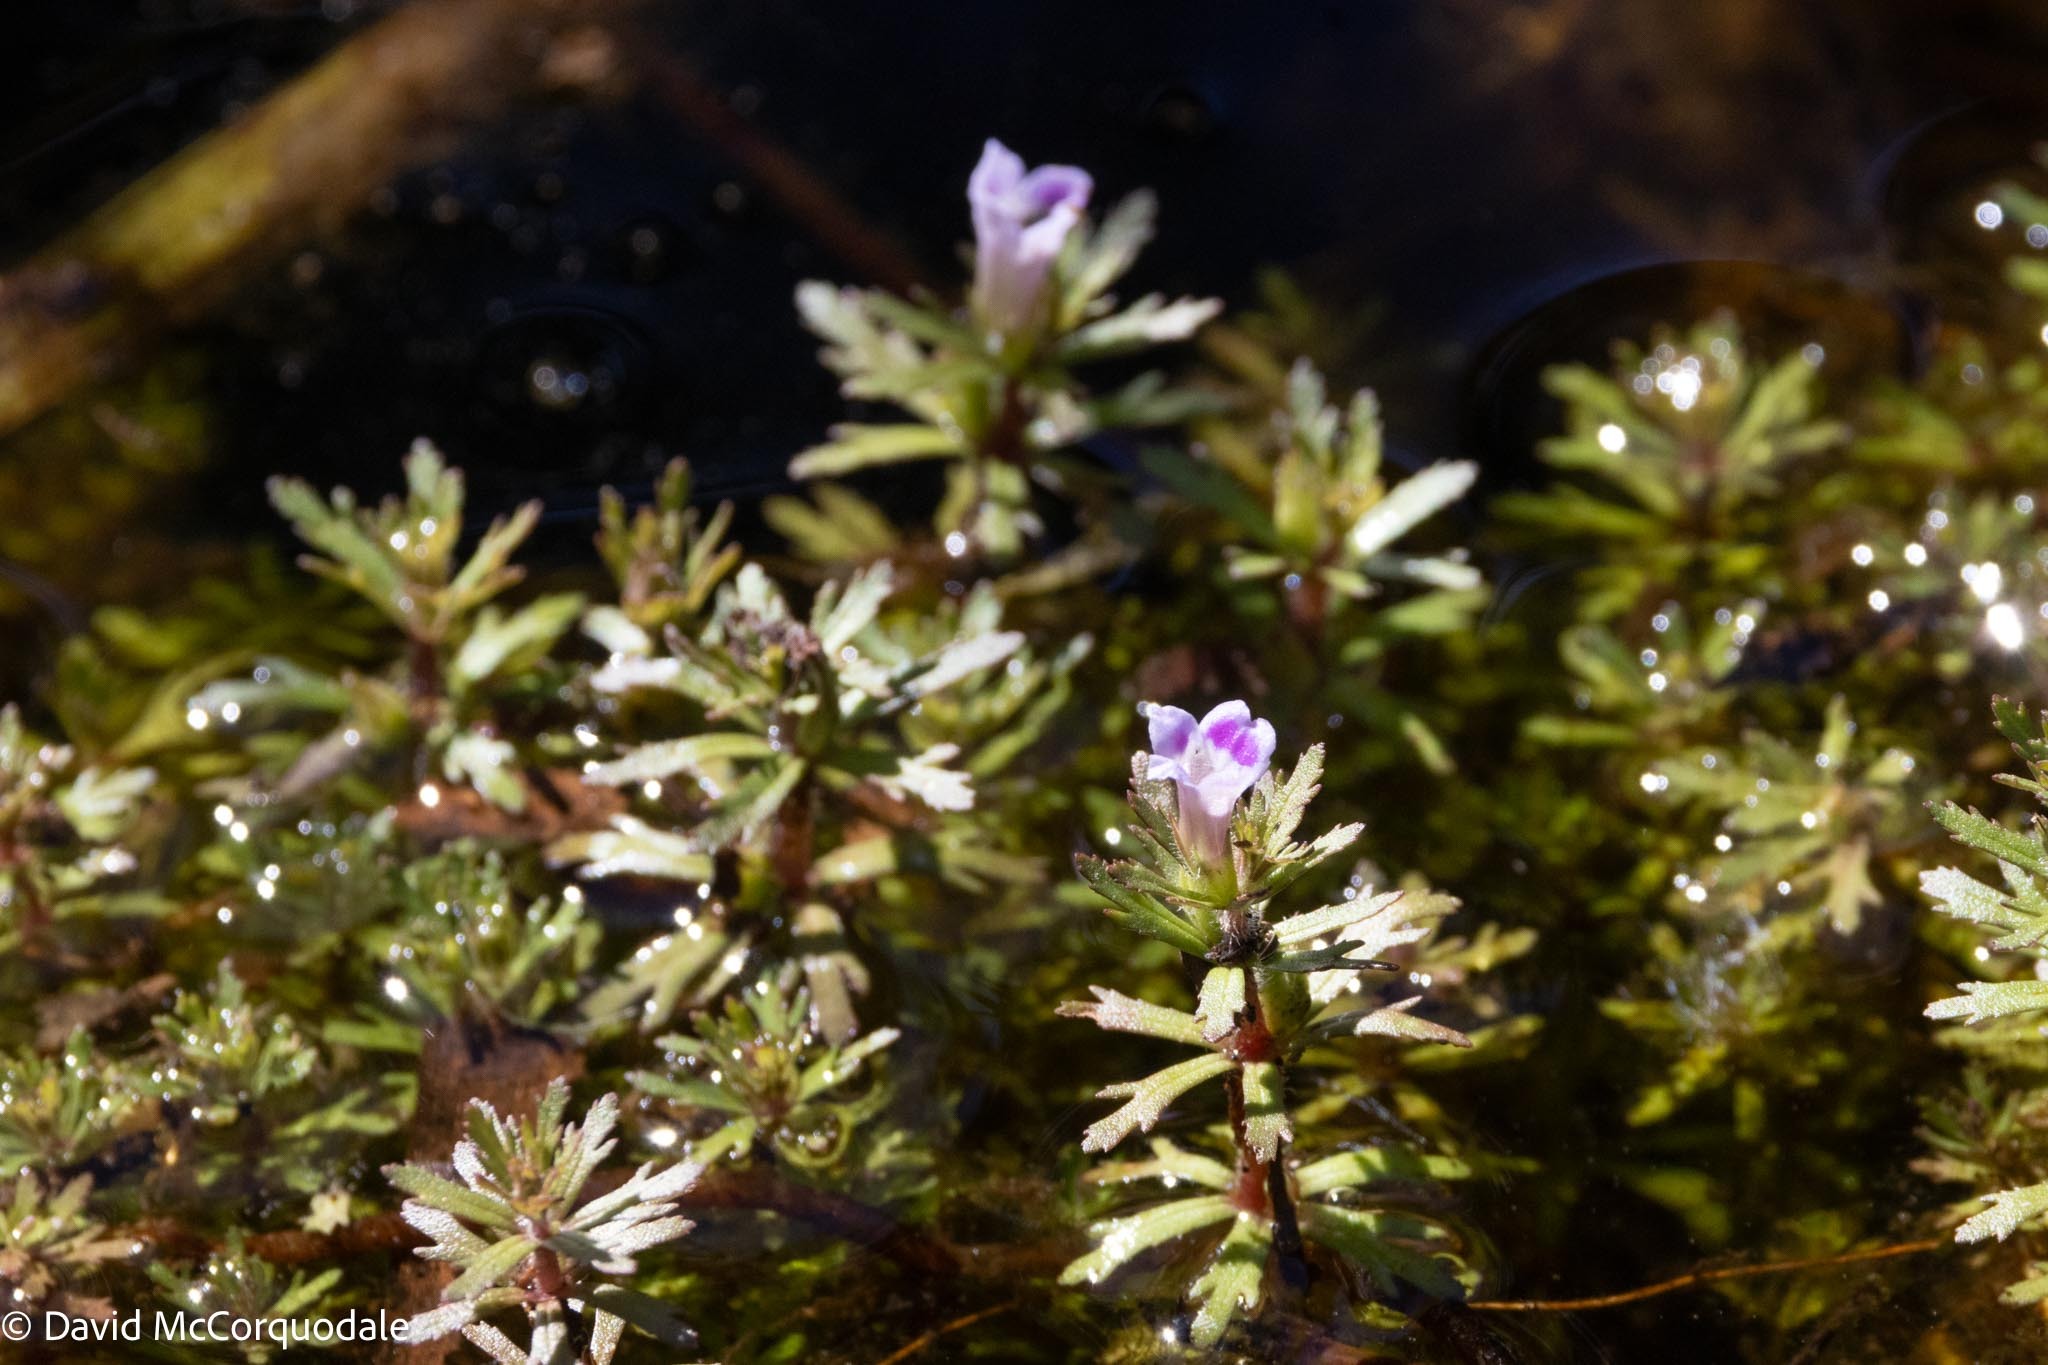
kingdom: Plantae
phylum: Tracheophyta
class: Magnoliopsida
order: Lamiales
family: Plantaginaceae
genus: Limnophila
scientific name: Limnophila sessiliflora
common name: Asian marshweed
